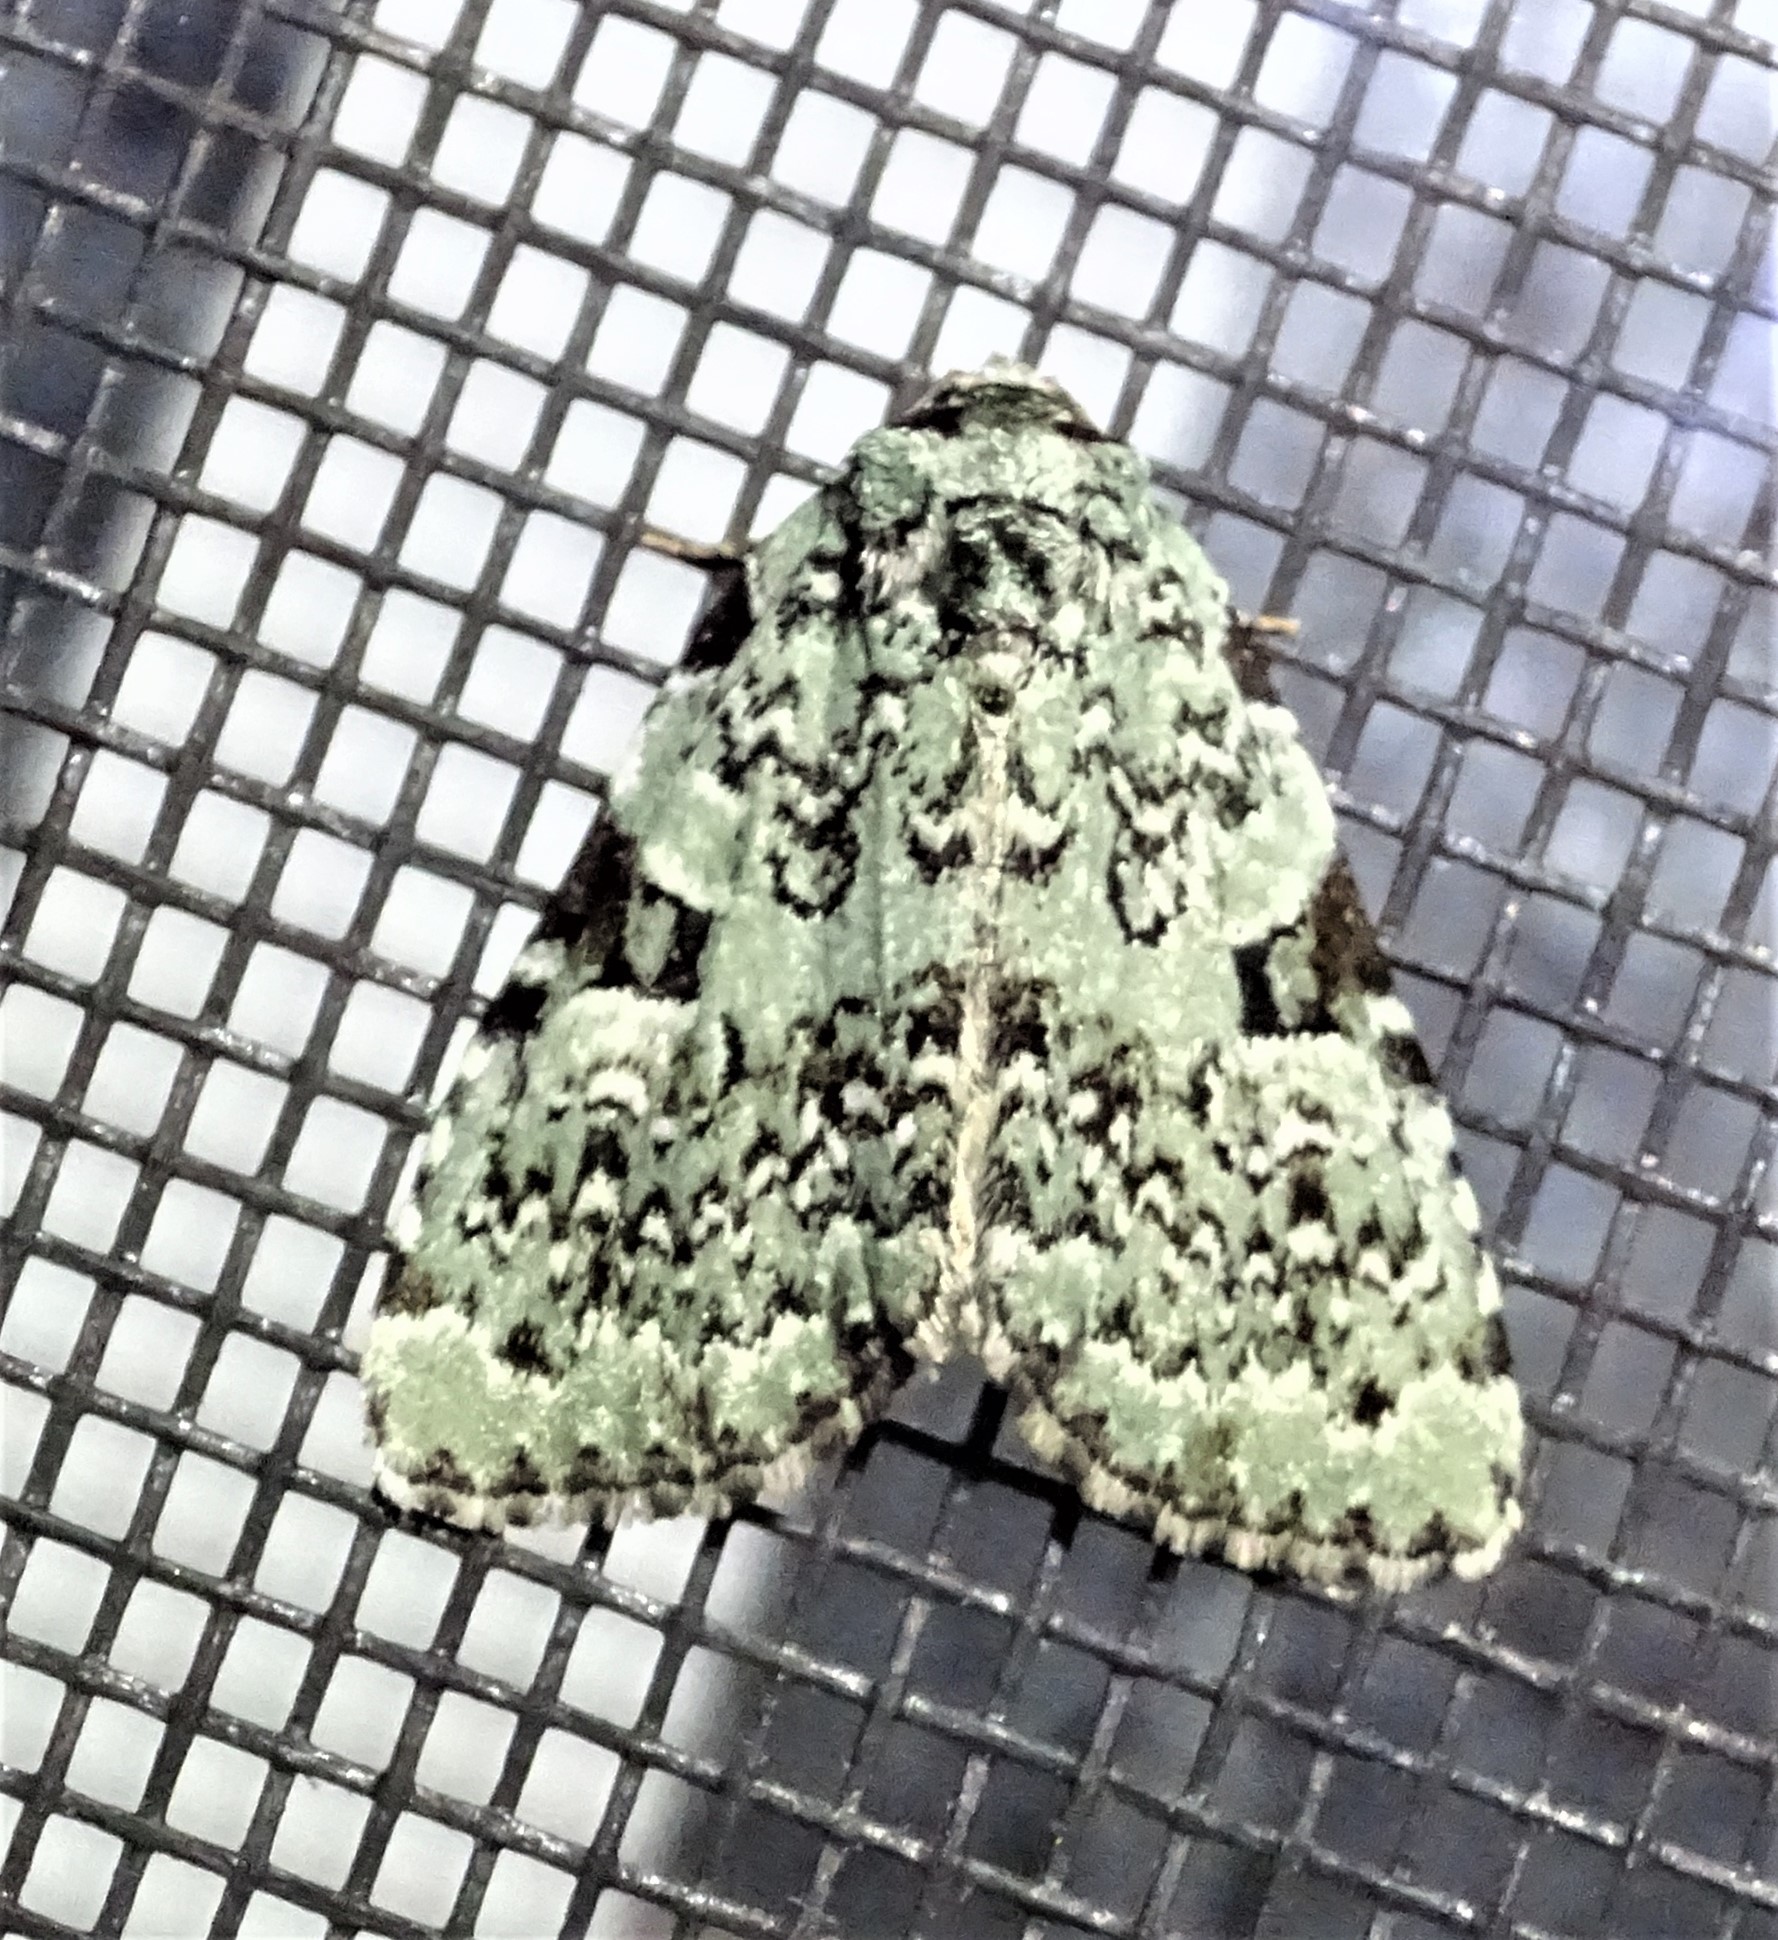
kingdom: Animalia
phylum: Arthropoda
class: Insecta
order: Lepidoptera
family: Noctuidae
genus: Leuconycta
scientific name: Leuconycta diphteroides
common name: Green leuconycta moth
